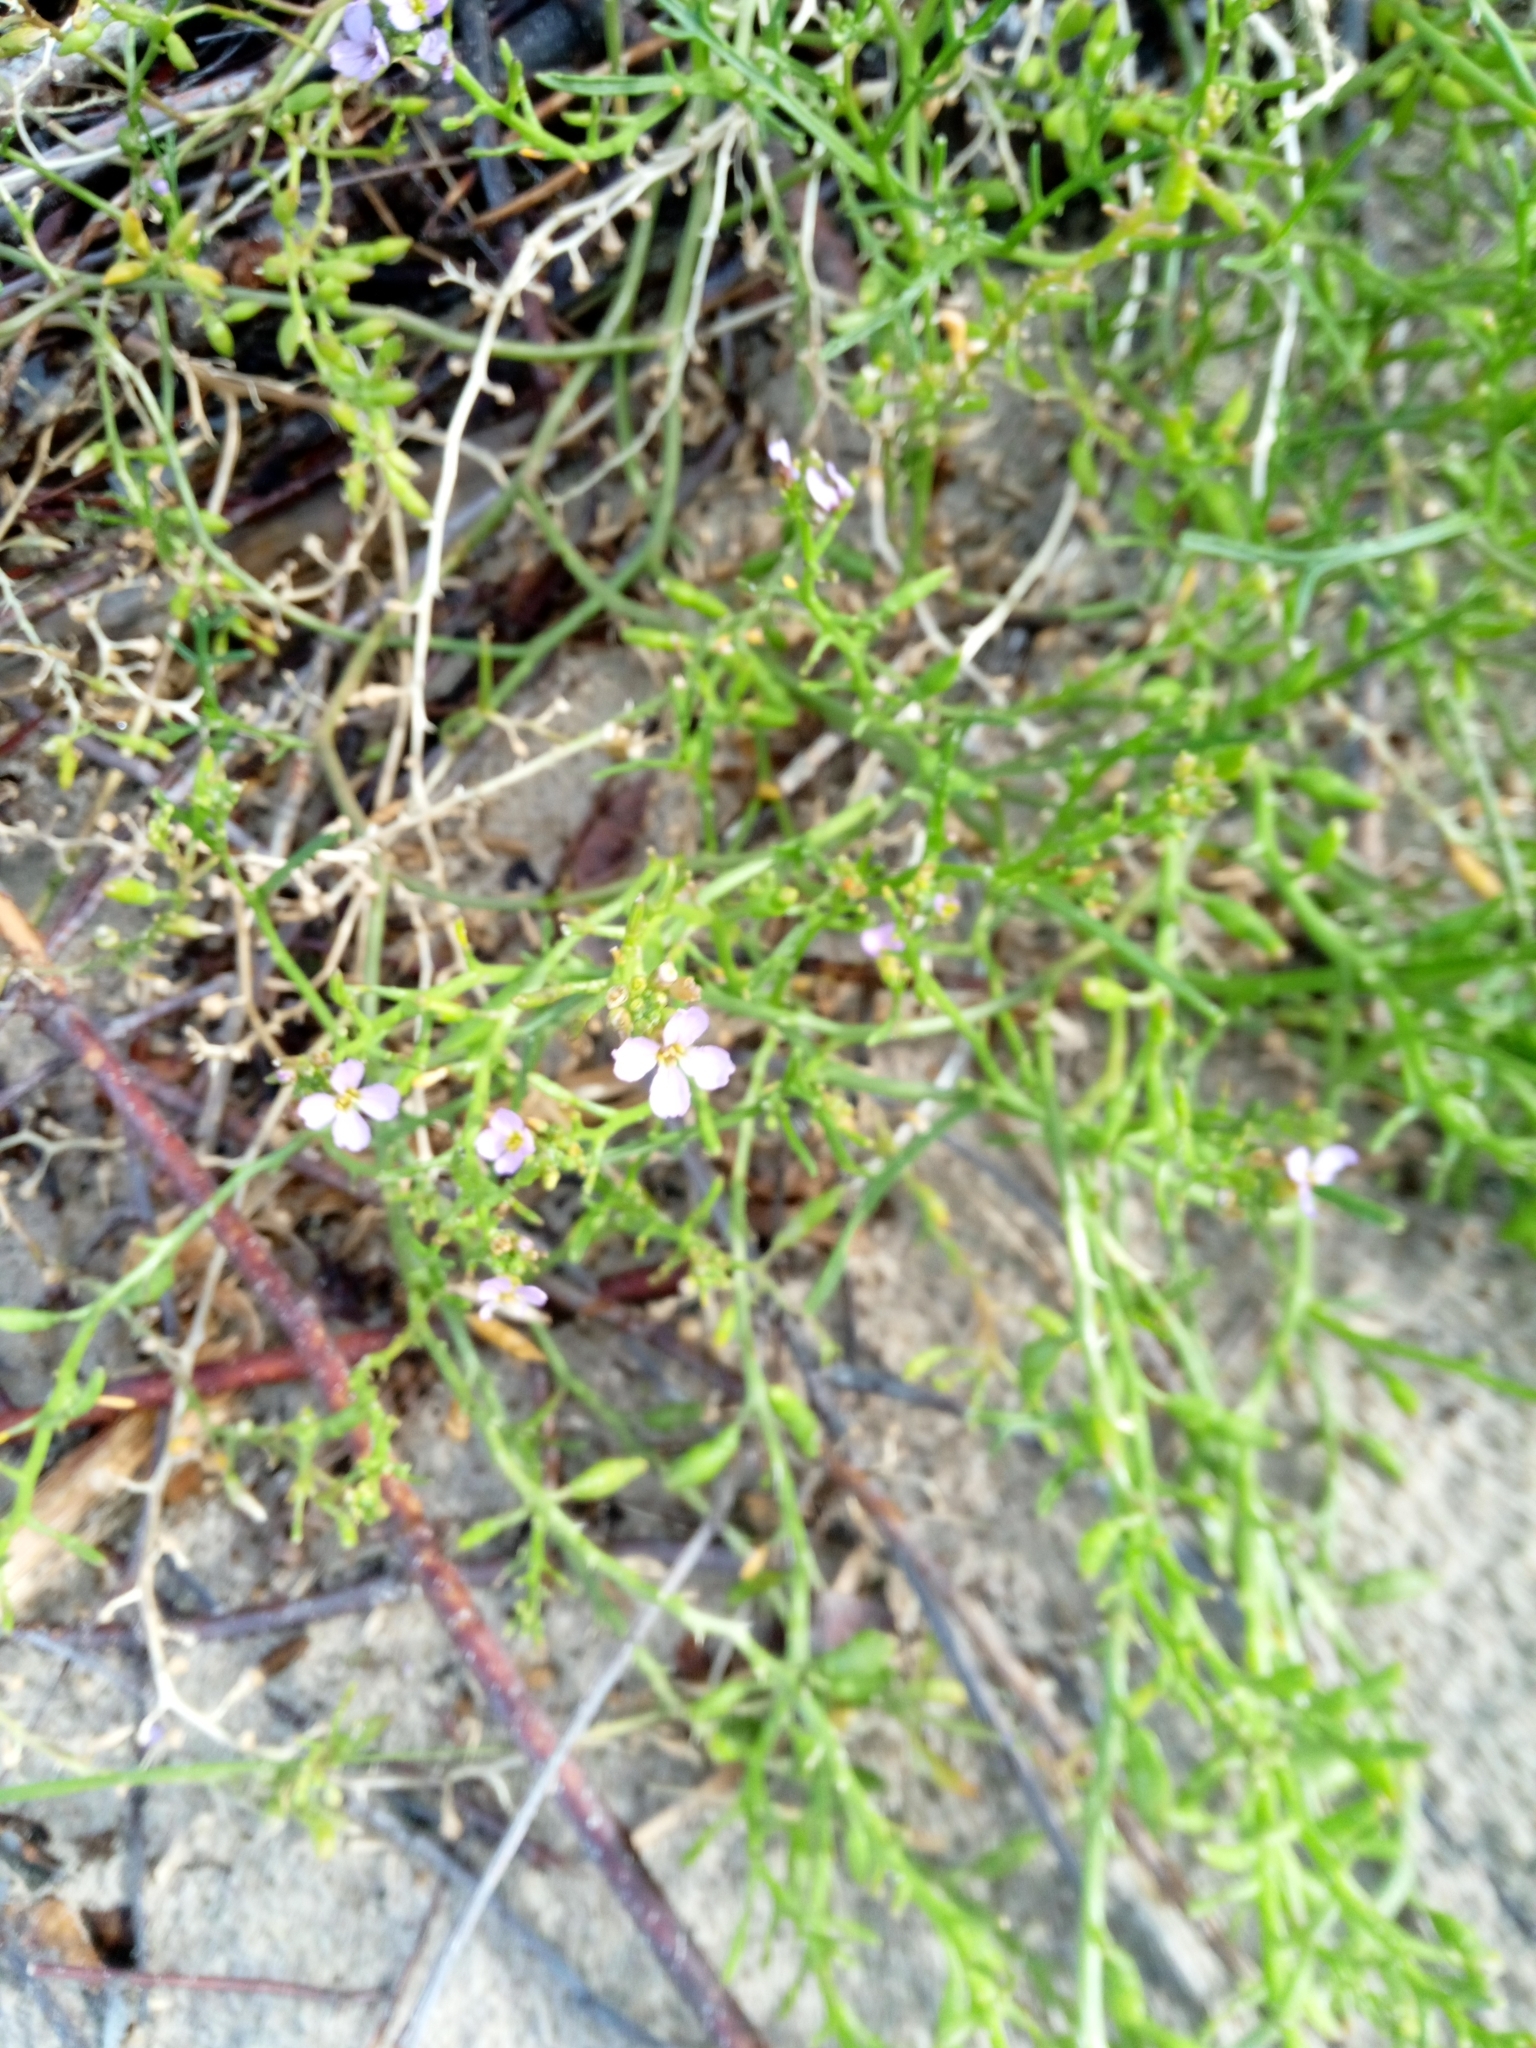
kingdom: Plantae
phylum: Tracheophyta
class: Magnoliopsida
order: Brassicales
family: Brassicaceae
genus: Cakile
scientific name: Cakile maritima
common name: Sea rocket
